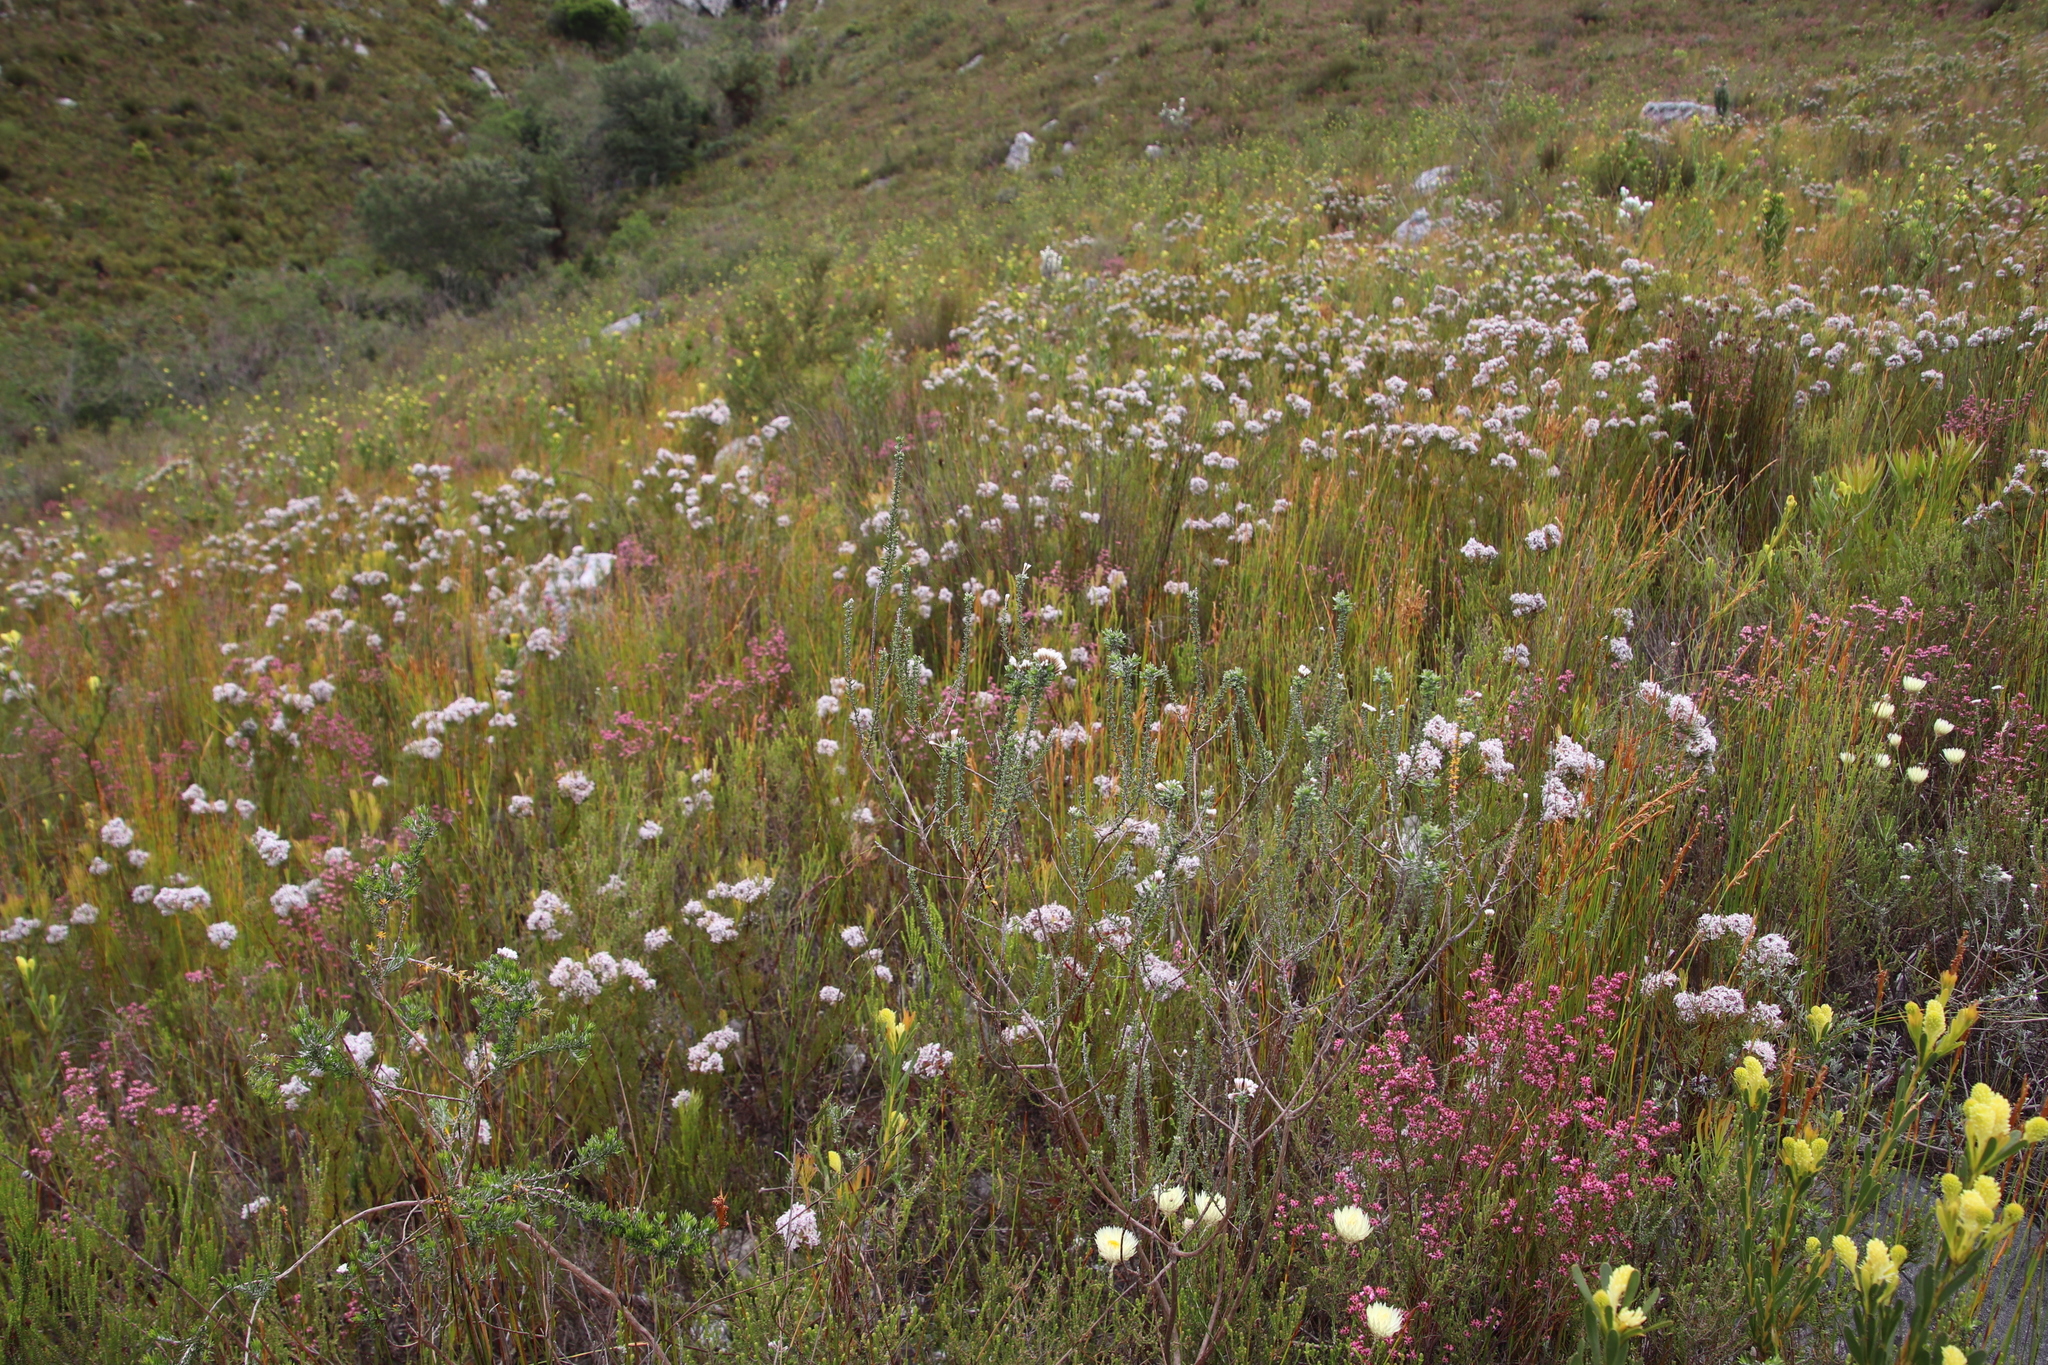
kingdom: Plantae
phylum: Tracheophyta
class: Magnoliopsida
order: Proteales
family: Proteaceae
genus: Serruria
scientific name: Serruria ascendens
